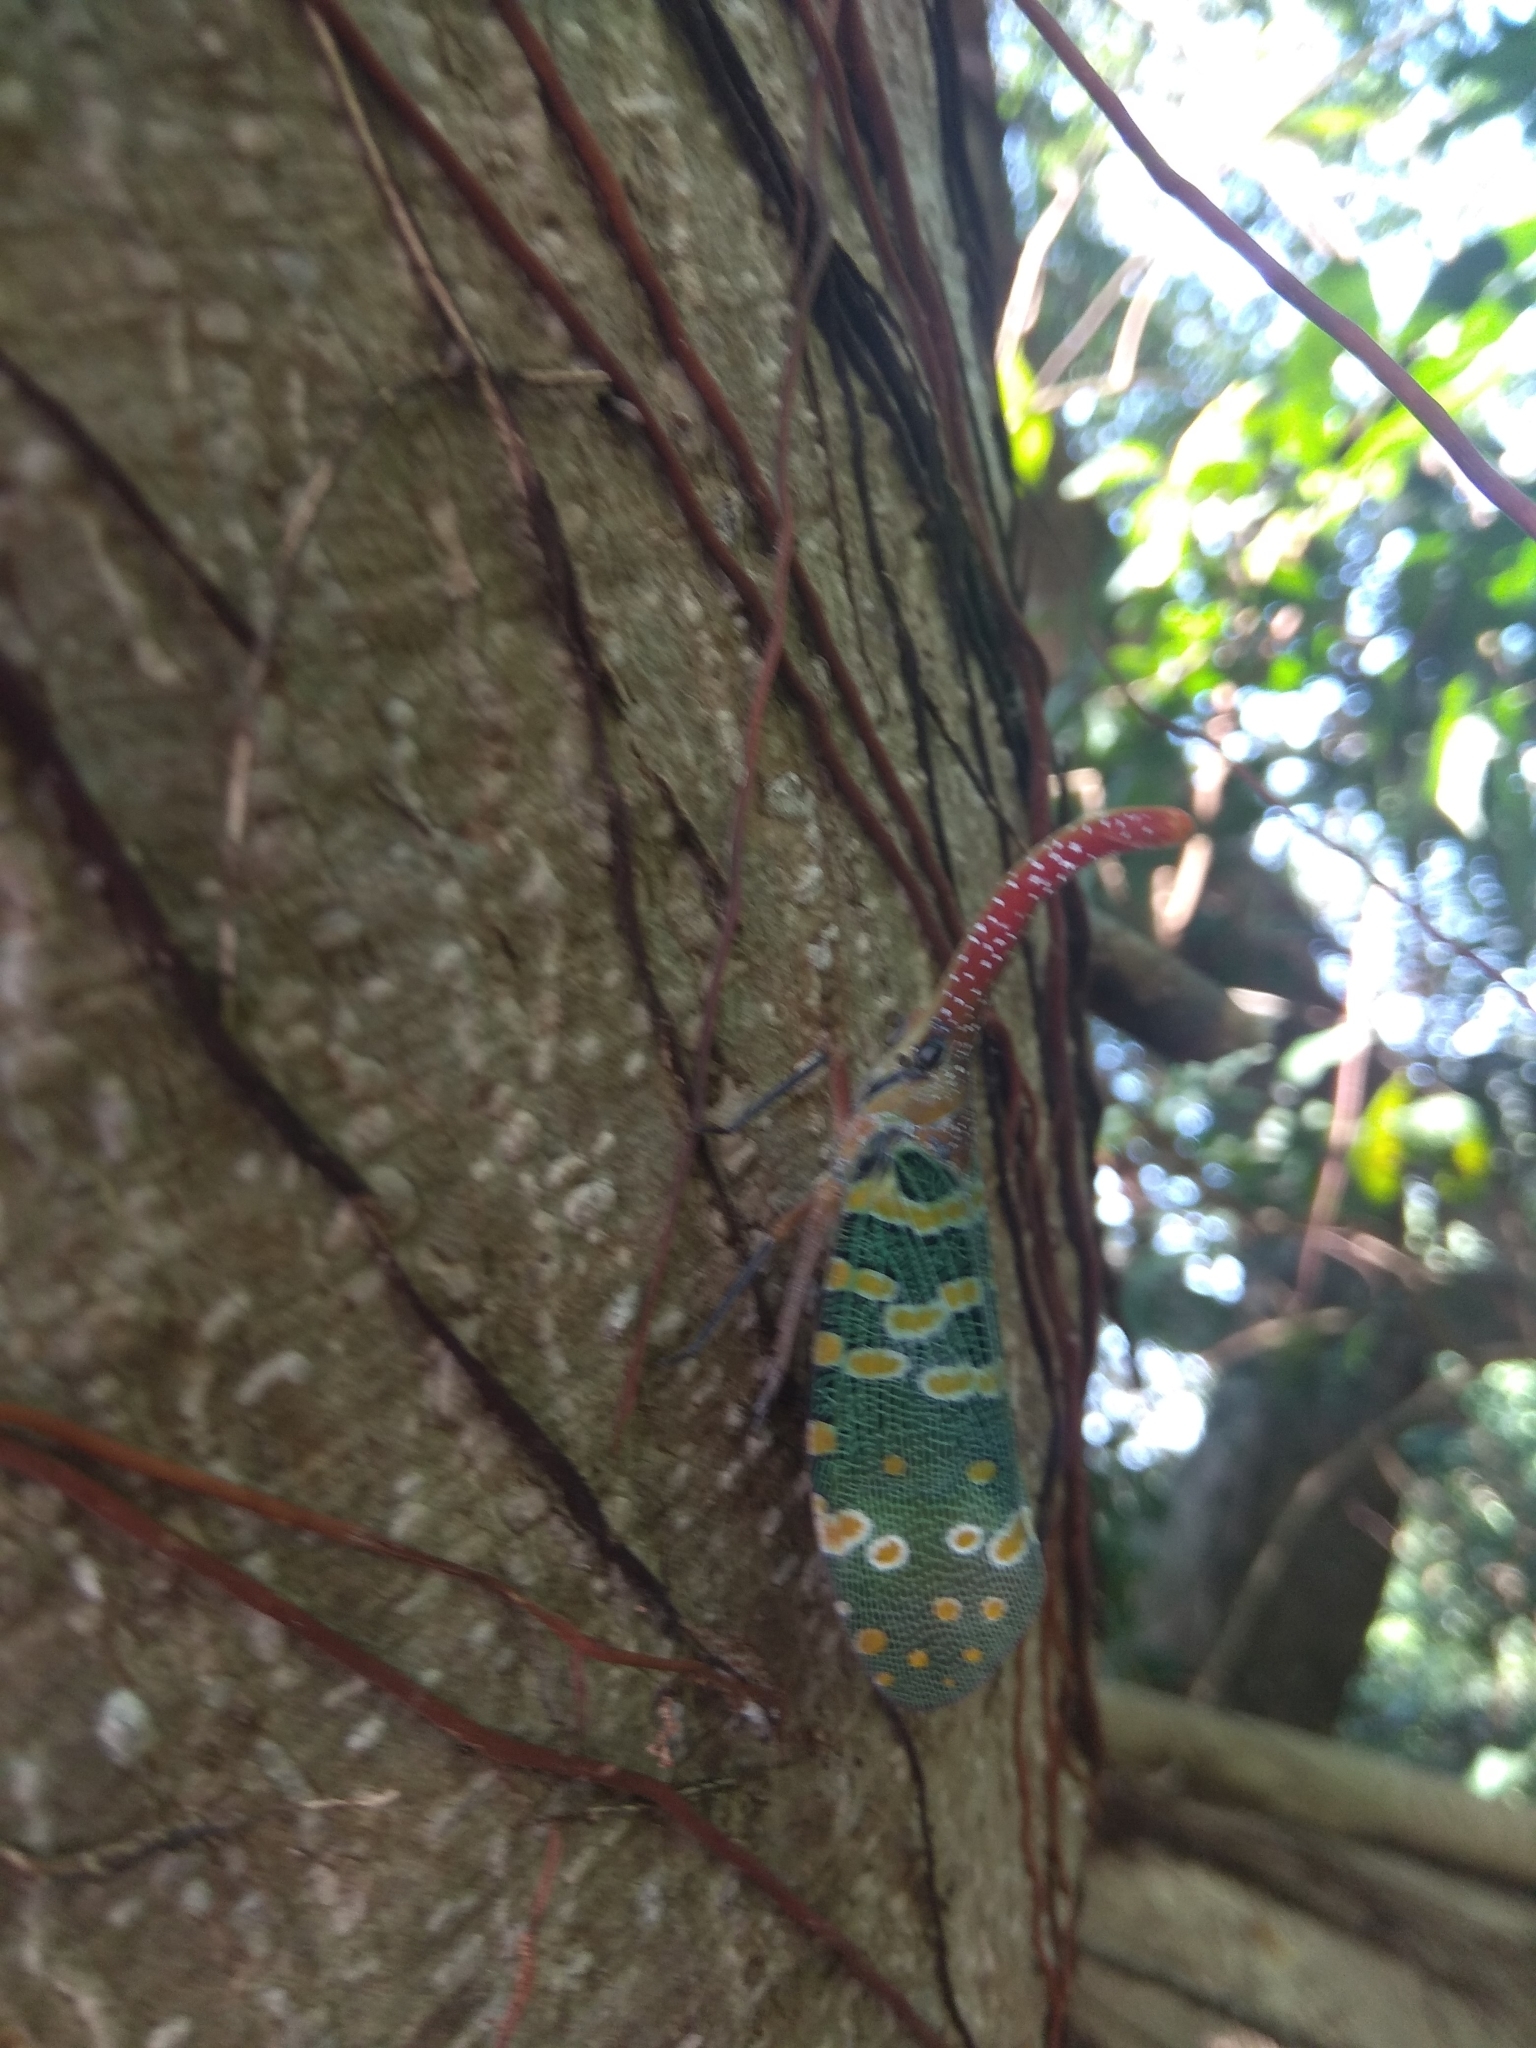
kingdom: Animalia
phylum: Arthropoda
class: Insecta
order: Hemiptera
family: Fulgoridae
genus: Pyrops
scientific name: Pyrops candelaria
